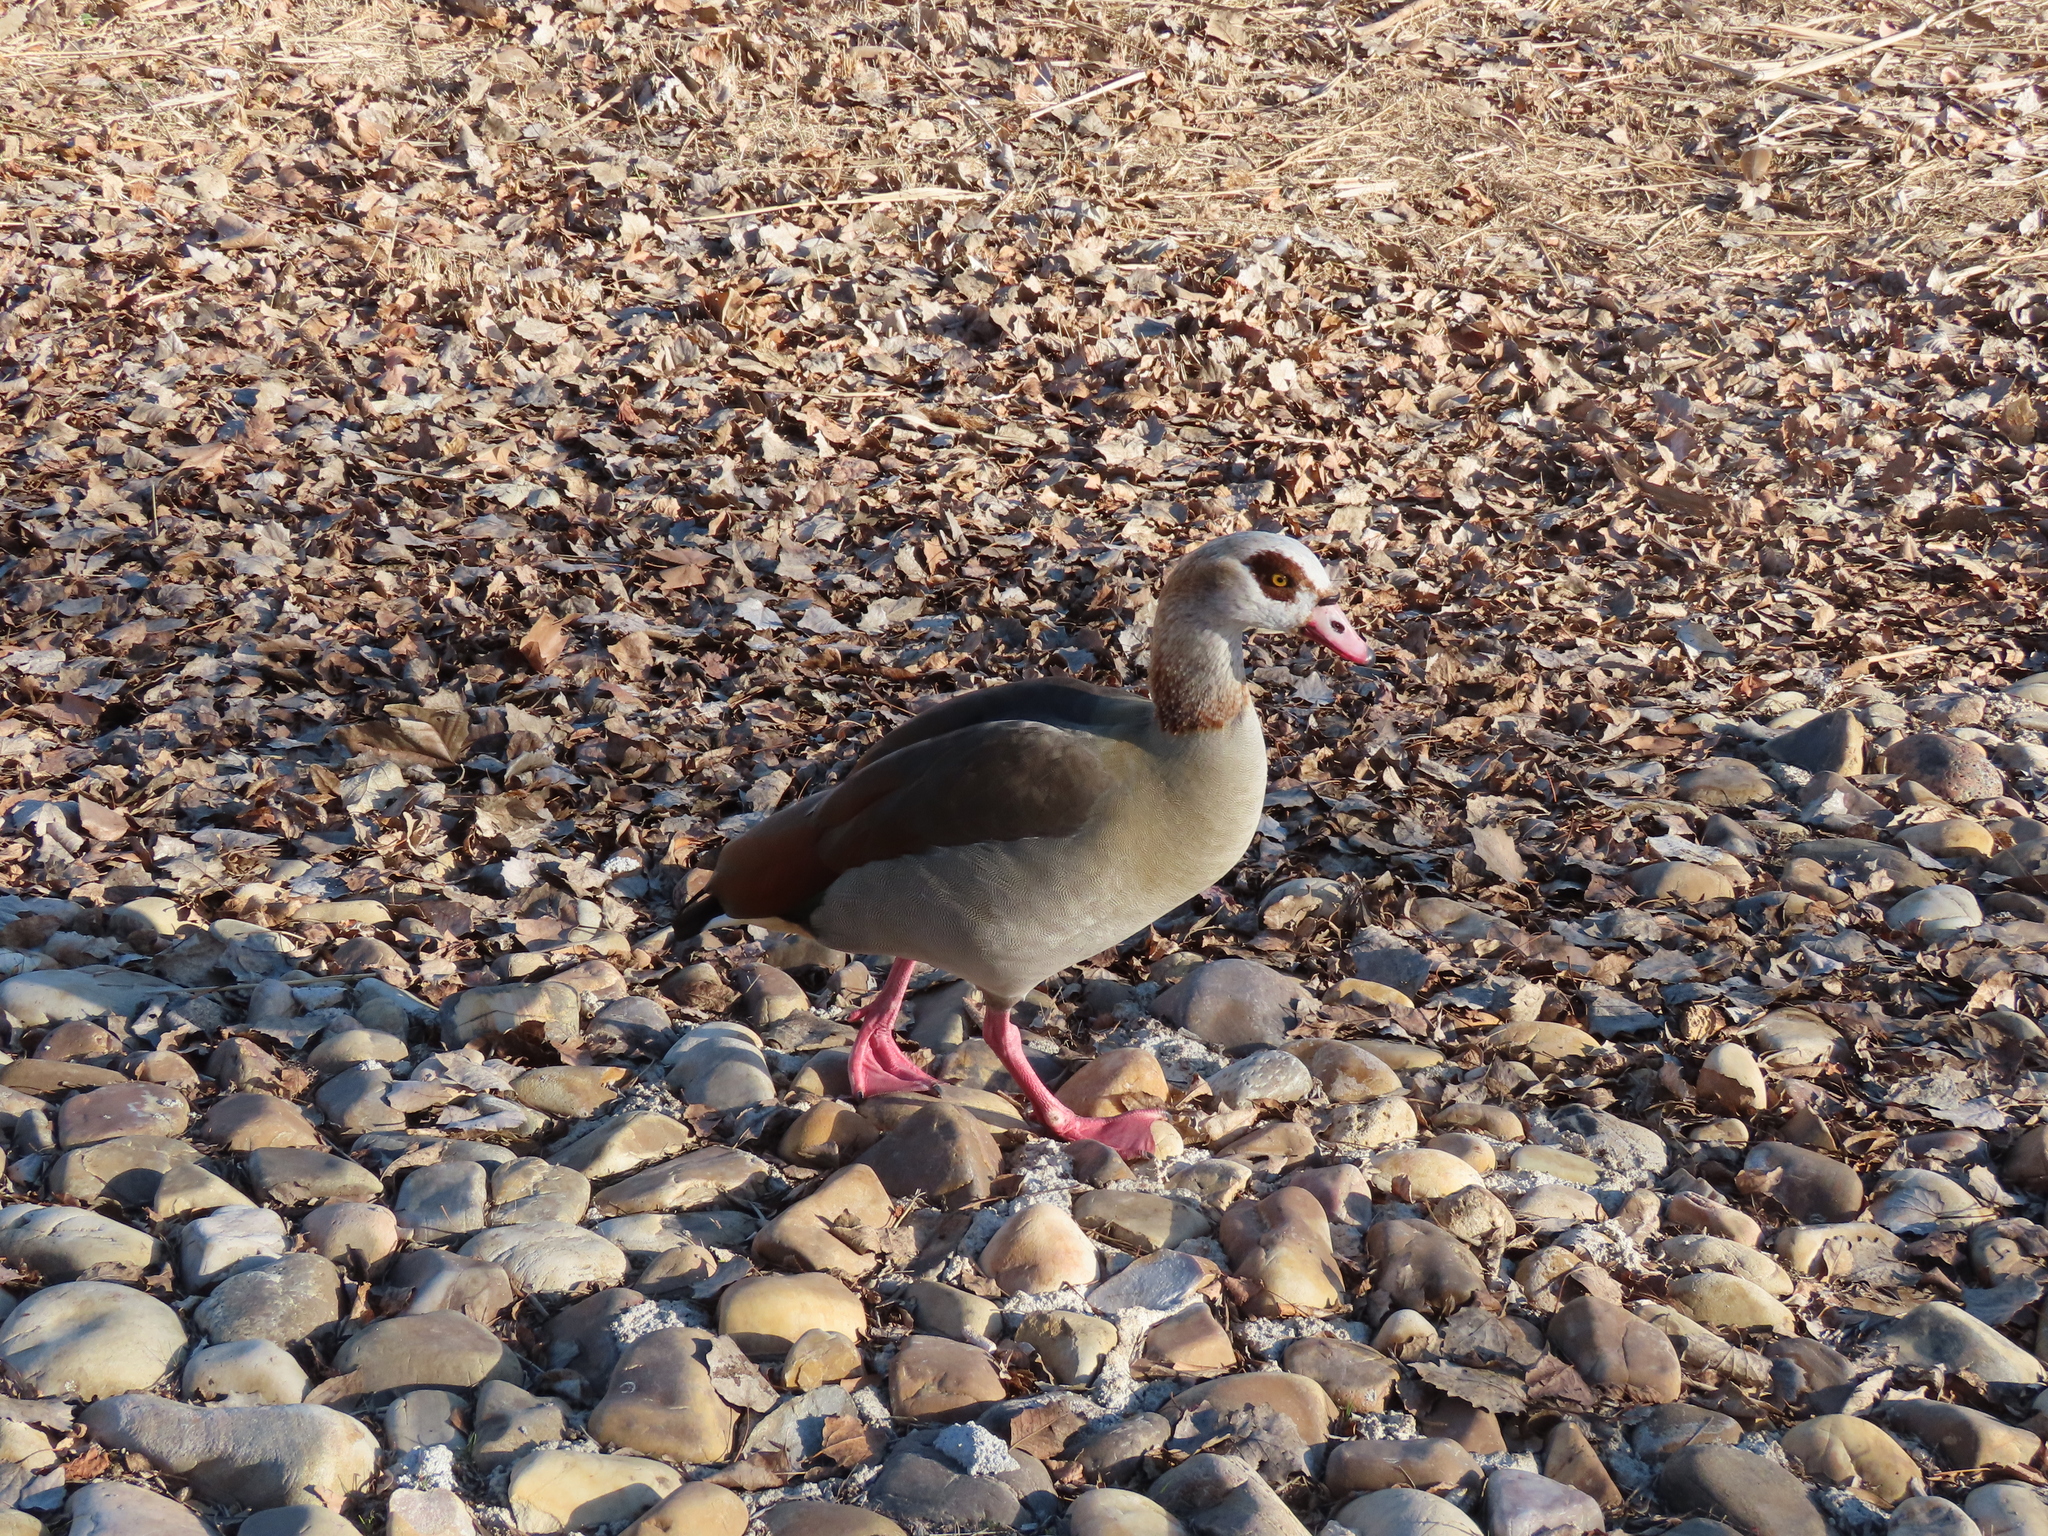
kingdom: Animalia
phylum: Chordata
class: Aves
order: Anseriformes
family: Anatidae
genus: Alopochen
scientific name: Alopochen aegyptiaca
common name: Egyptian goose
